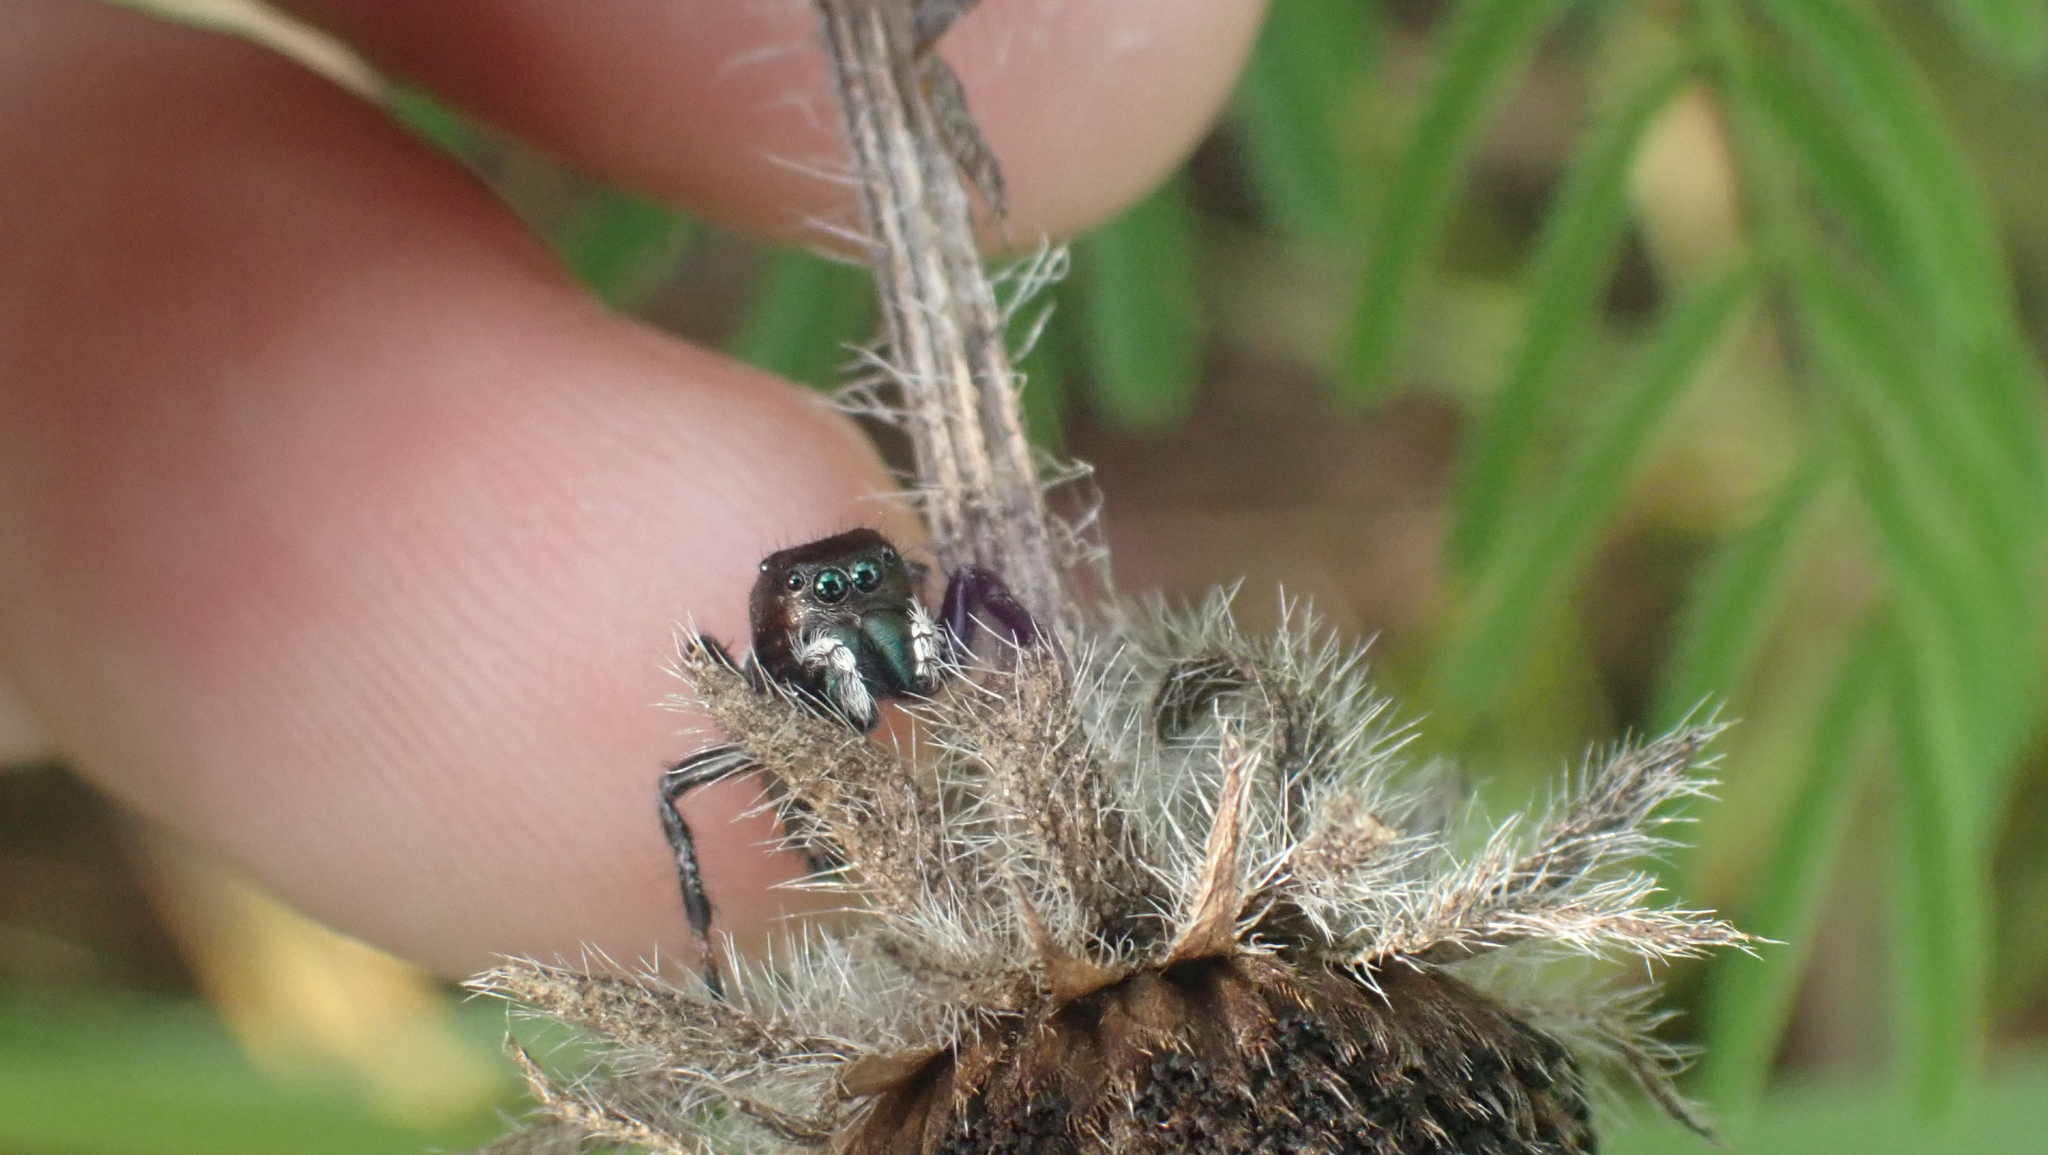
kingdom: Animalia
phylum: Arthropoda
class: Arachnida
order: Araneae
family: Salticidae
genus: Phidippus
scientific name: Phidippus clarus
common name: Brilliant jumping spider
